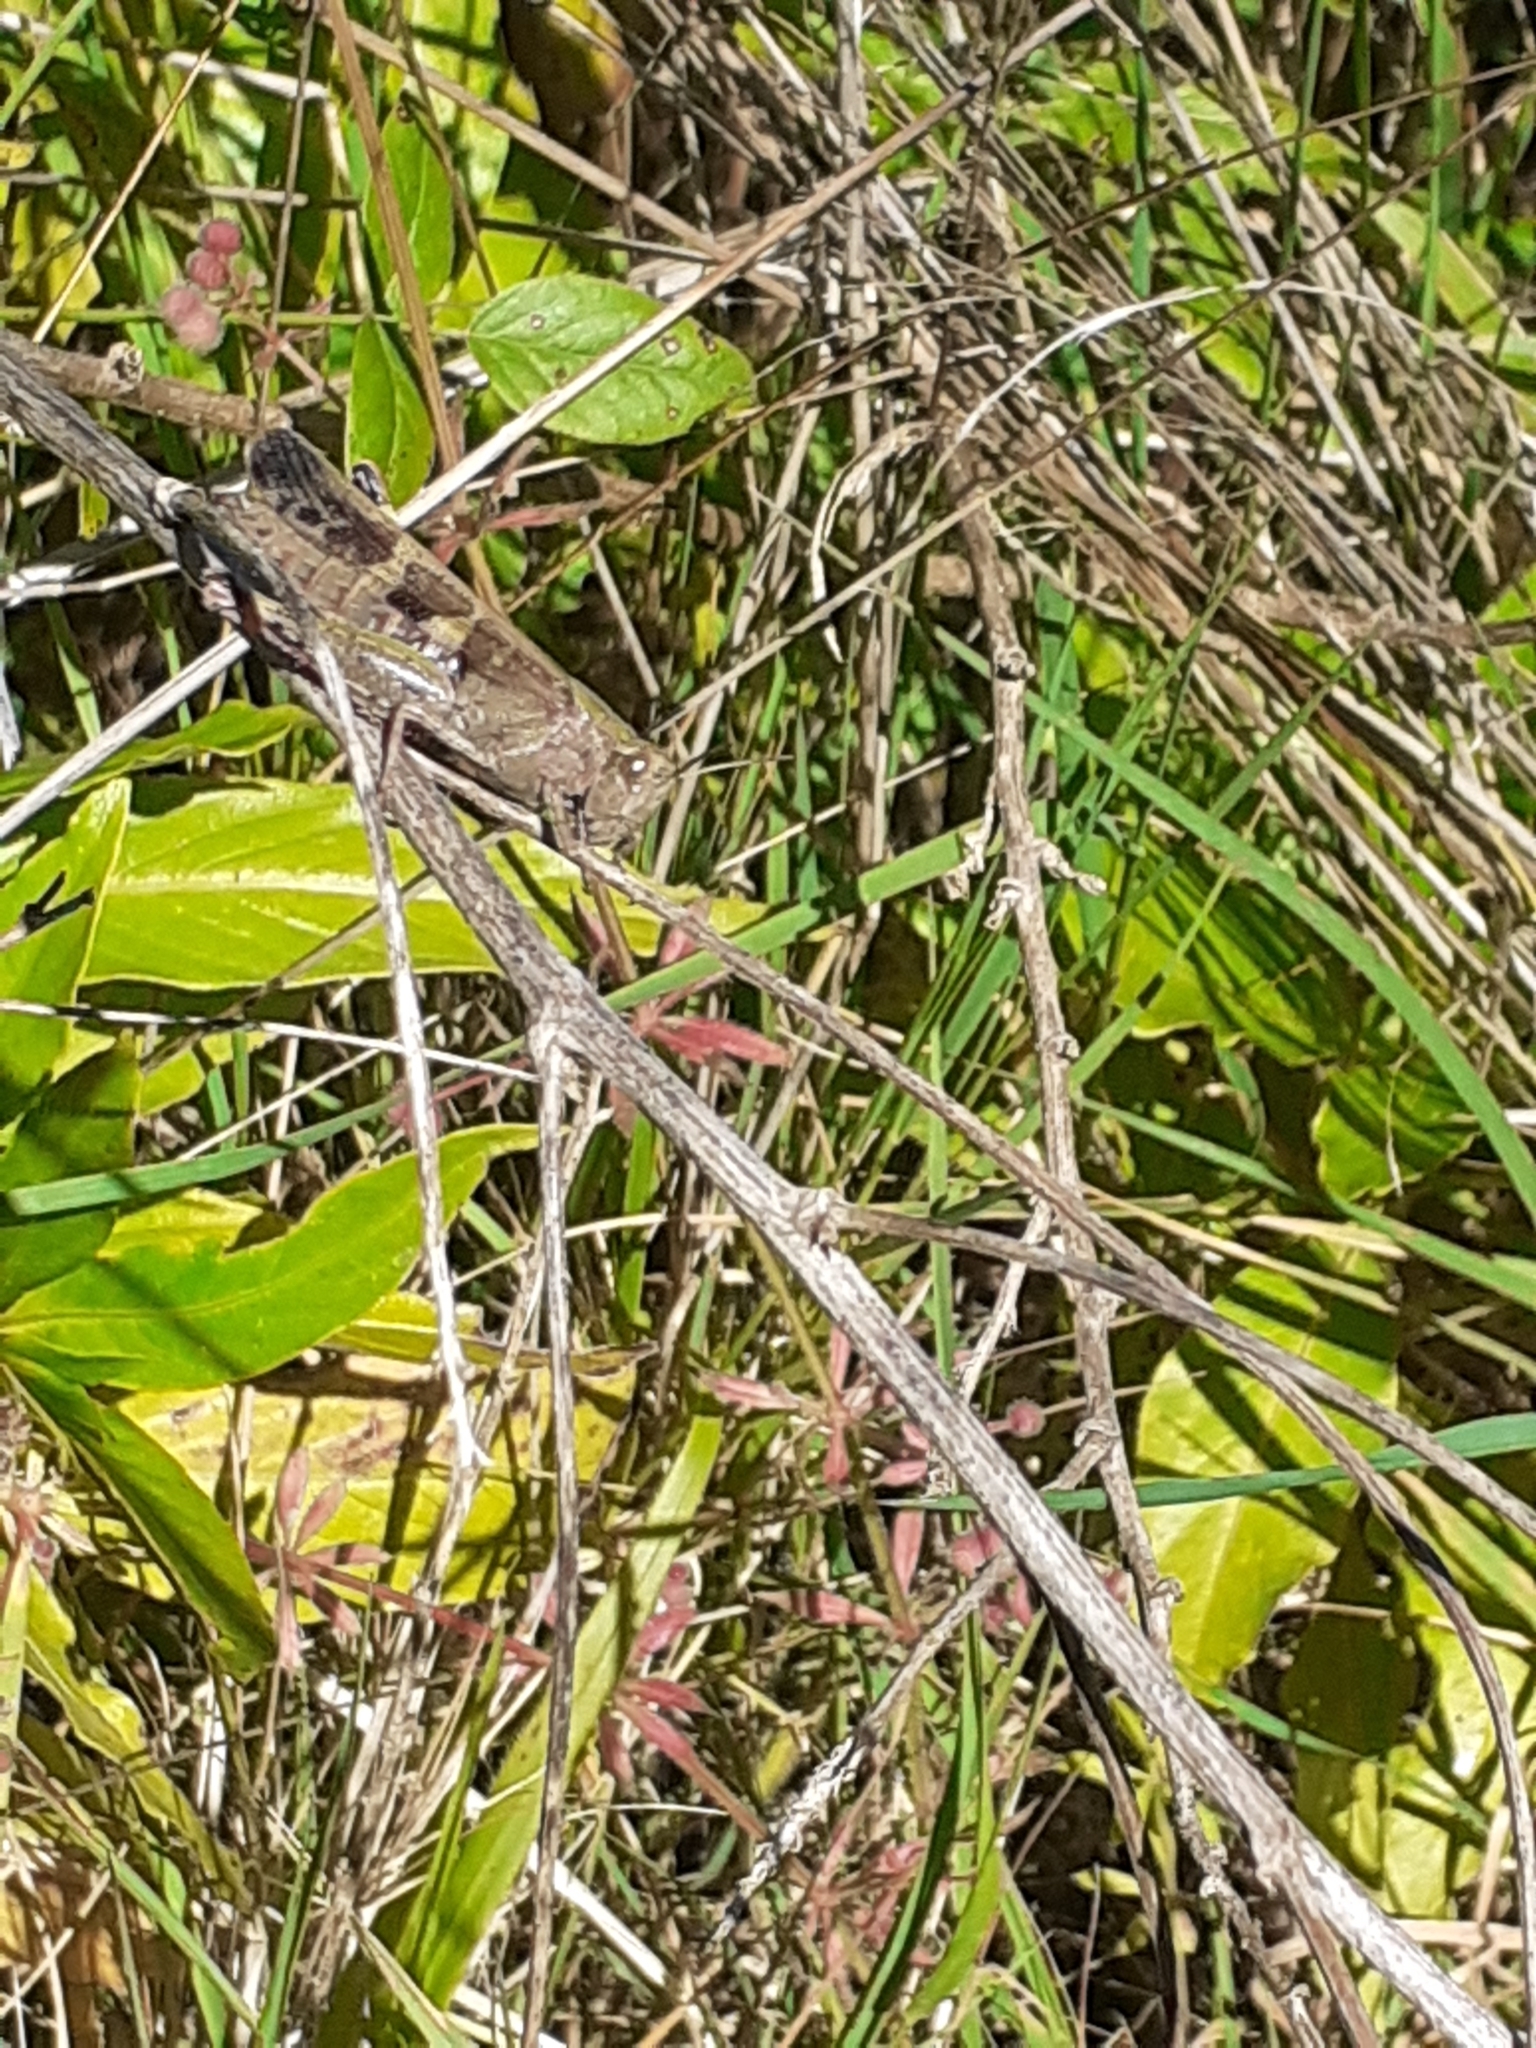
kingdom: Animalia
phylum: Arthropoda
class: Insecta
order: Orthoptera
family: Acrididae
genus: Aiolopus
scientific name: Aiolopus strepens
